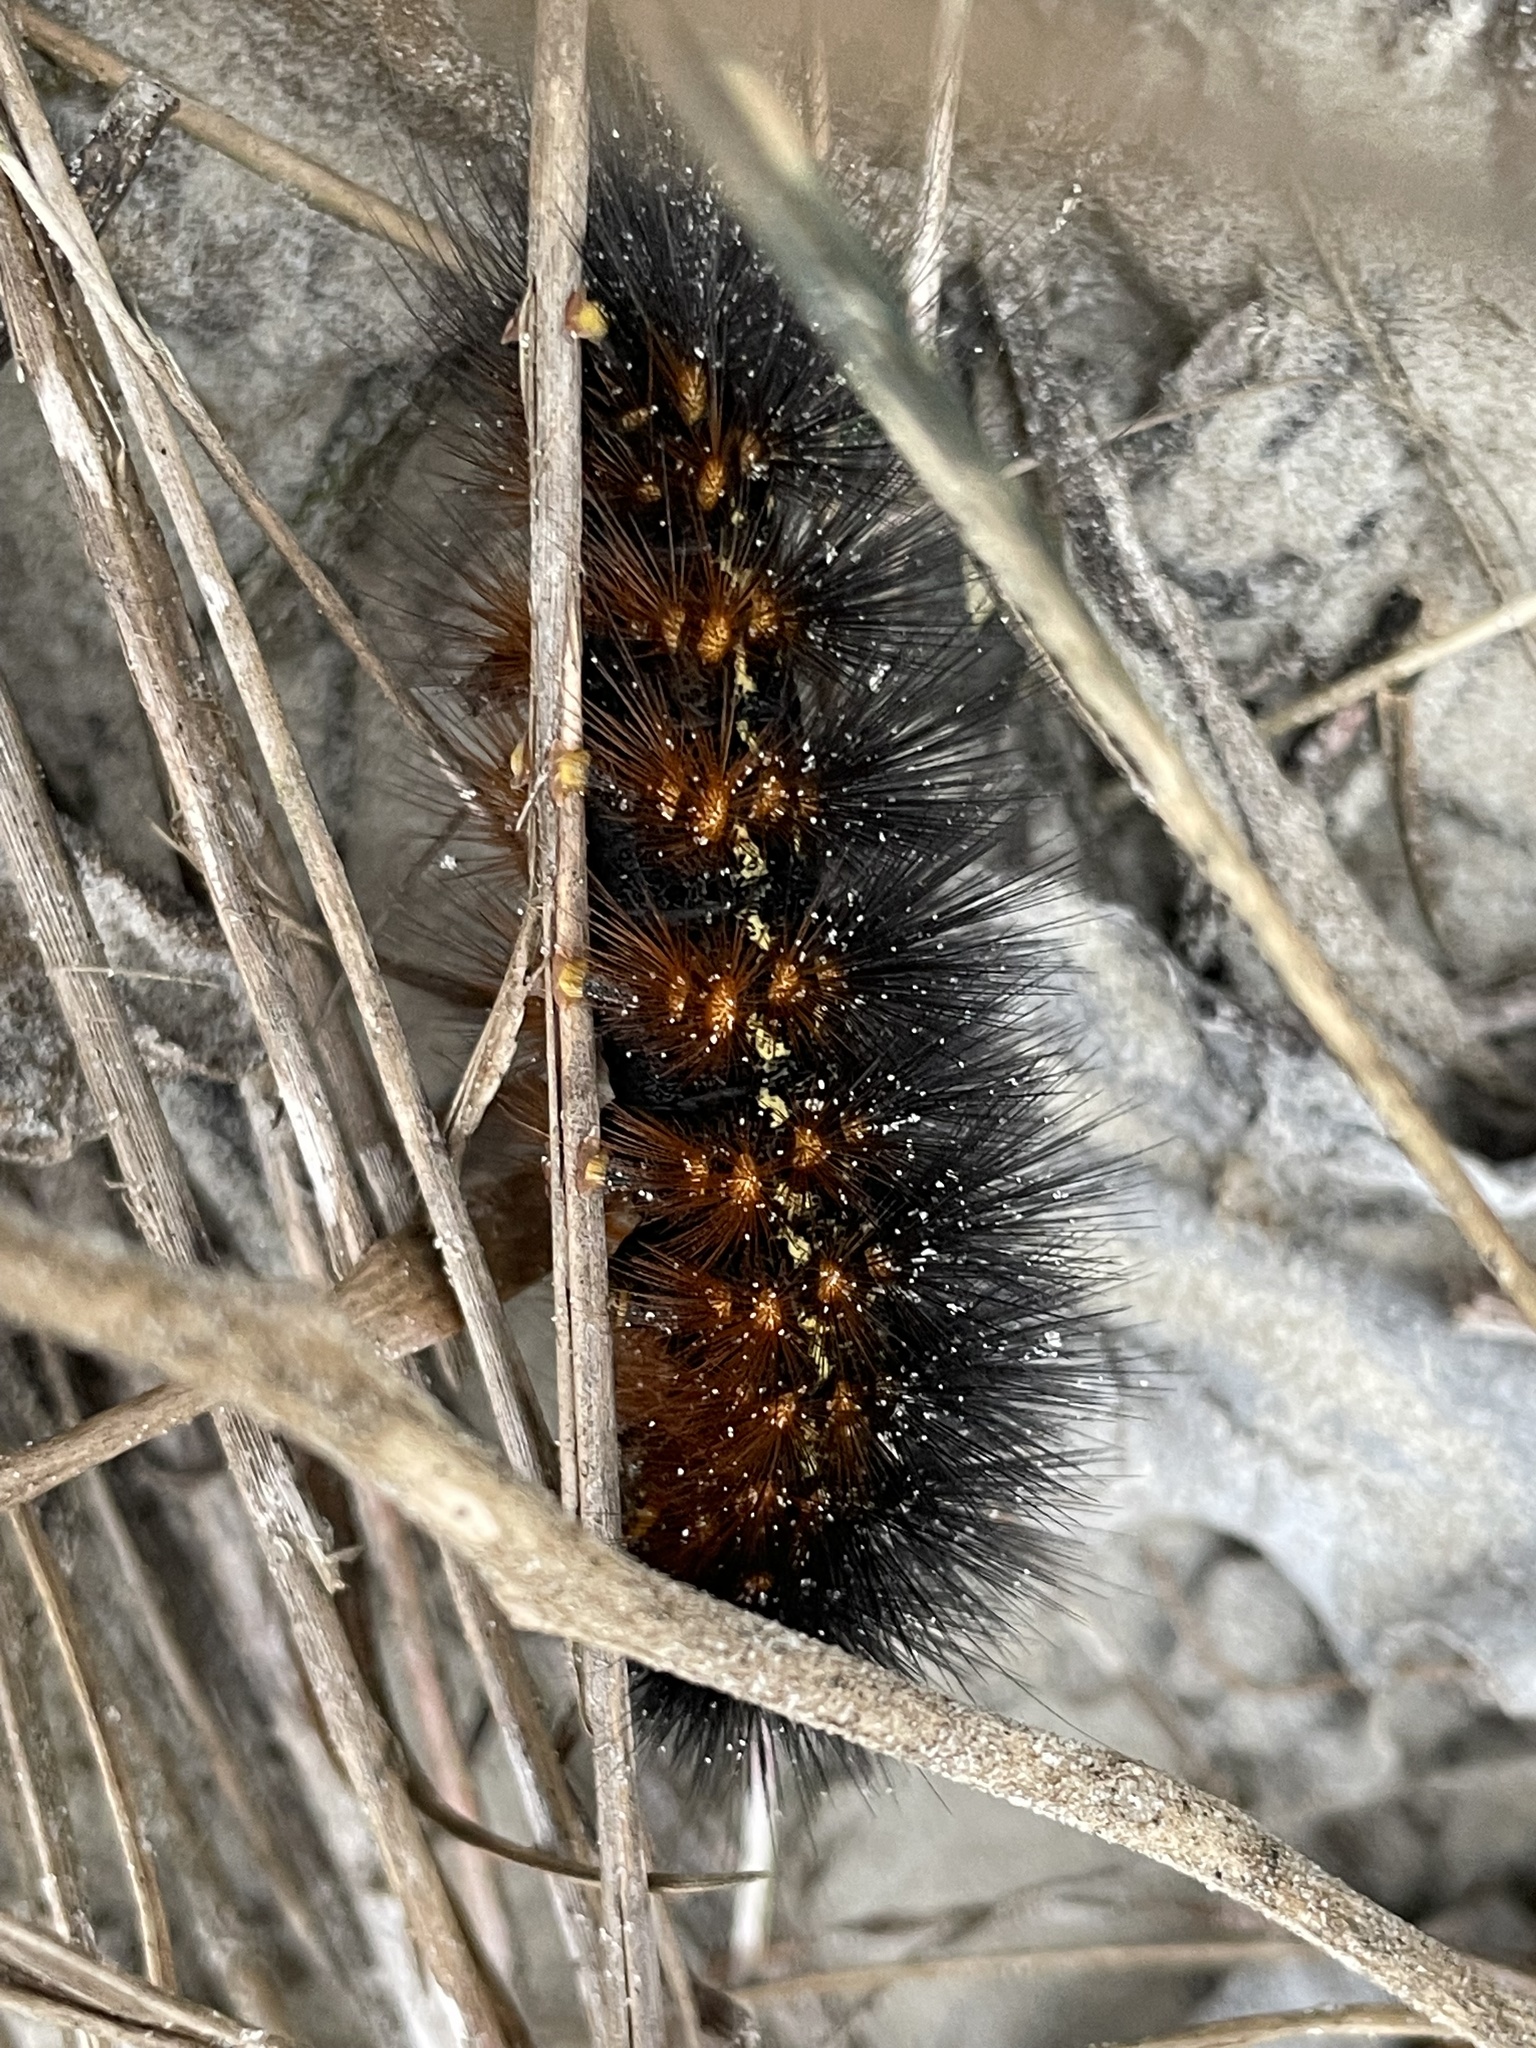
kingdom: Animalia
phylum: Arthropoda
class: Insecta
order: Lepidoptera
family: Erebidae
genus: Estigmene
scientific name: Estigmene acrea
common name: Salt marsh moth
